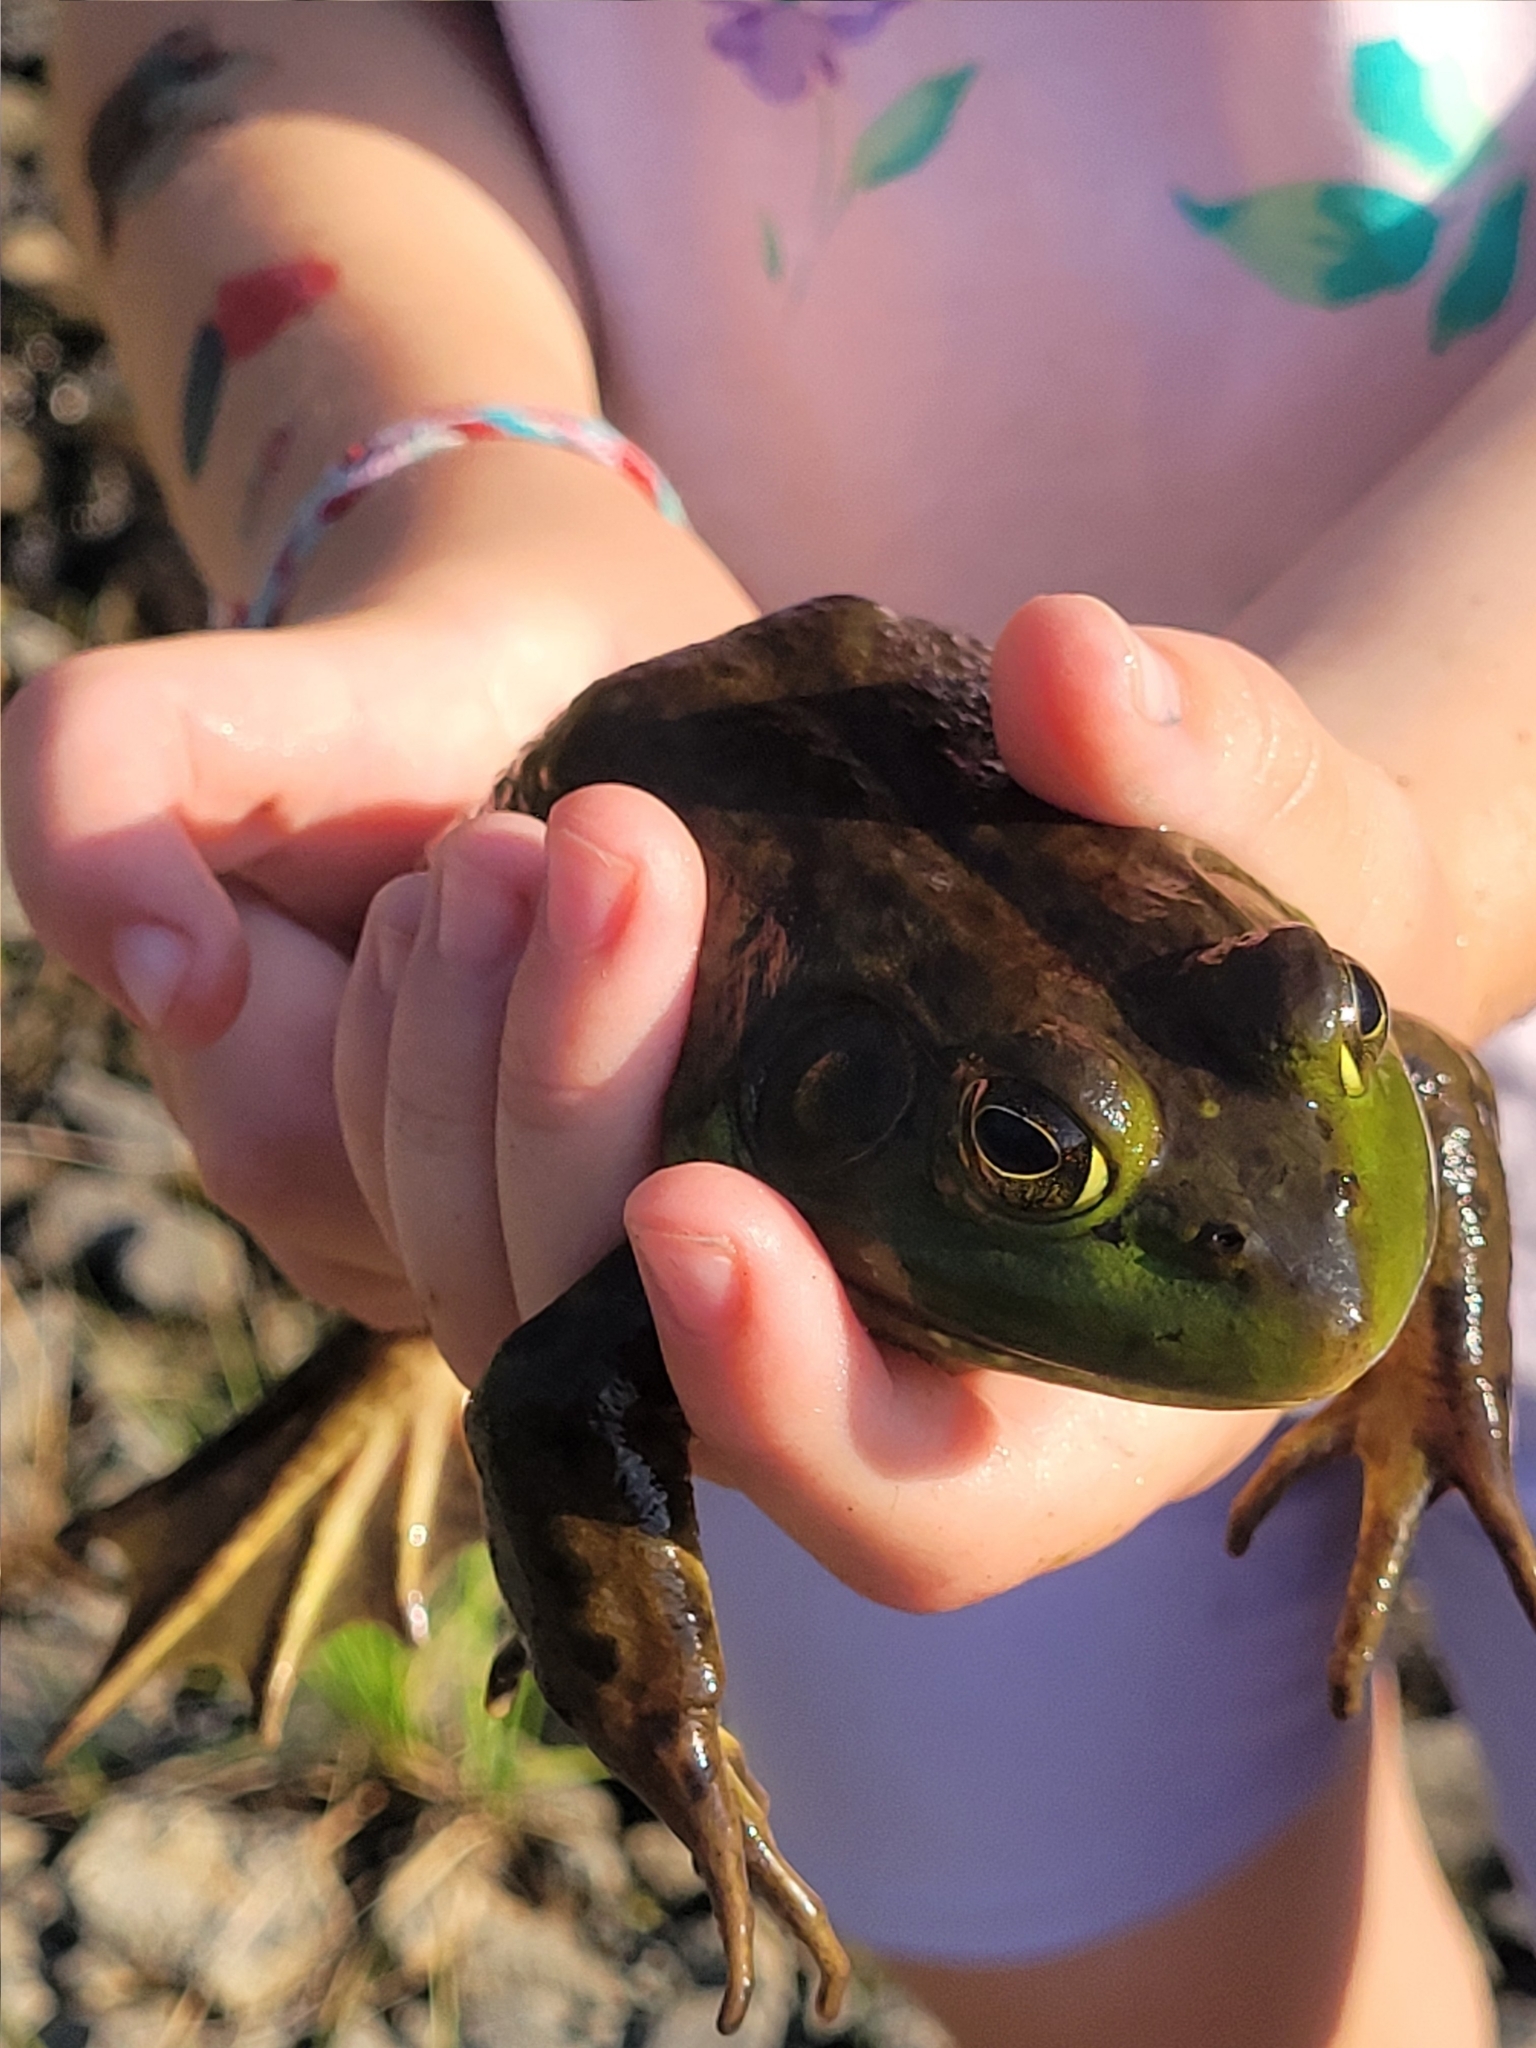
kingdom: Animalia
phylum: Chordata
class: Amphibia
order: Anura
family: Ranidae
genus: Lithobates
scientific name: Lithobates catesbeianus
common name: American bullfrog
